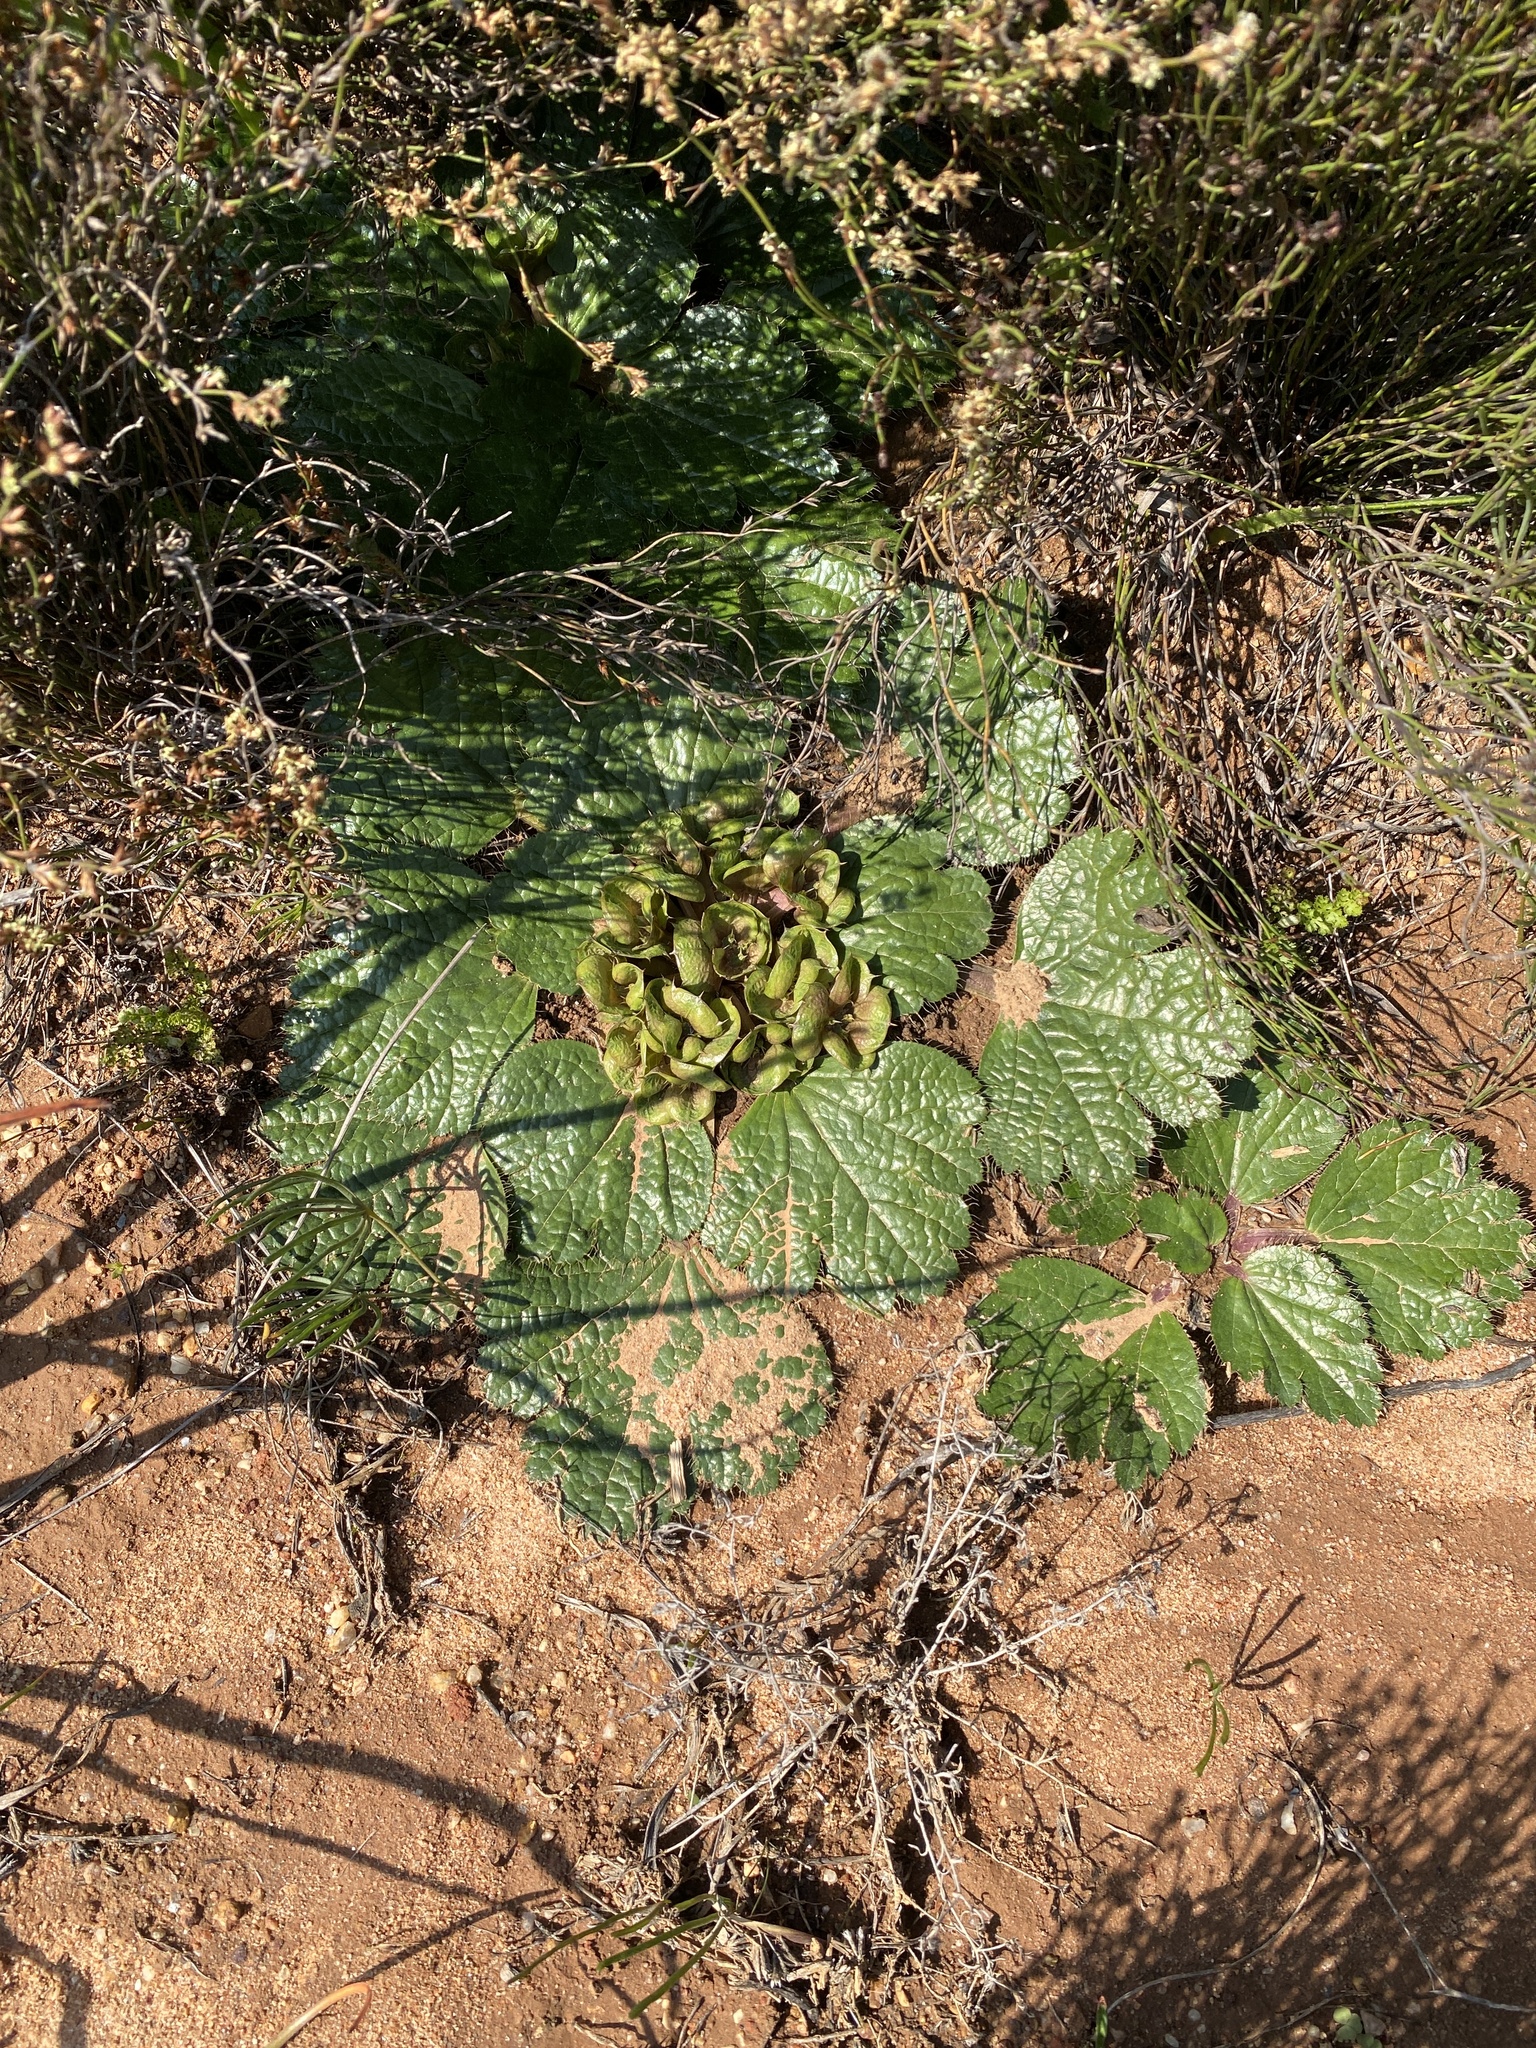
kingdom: Plantae
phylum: Tracheophyta
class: Magnoliopsida
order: Apiales
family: Apiaceae
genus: Arctopus
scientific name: Arctopus monacanthus
